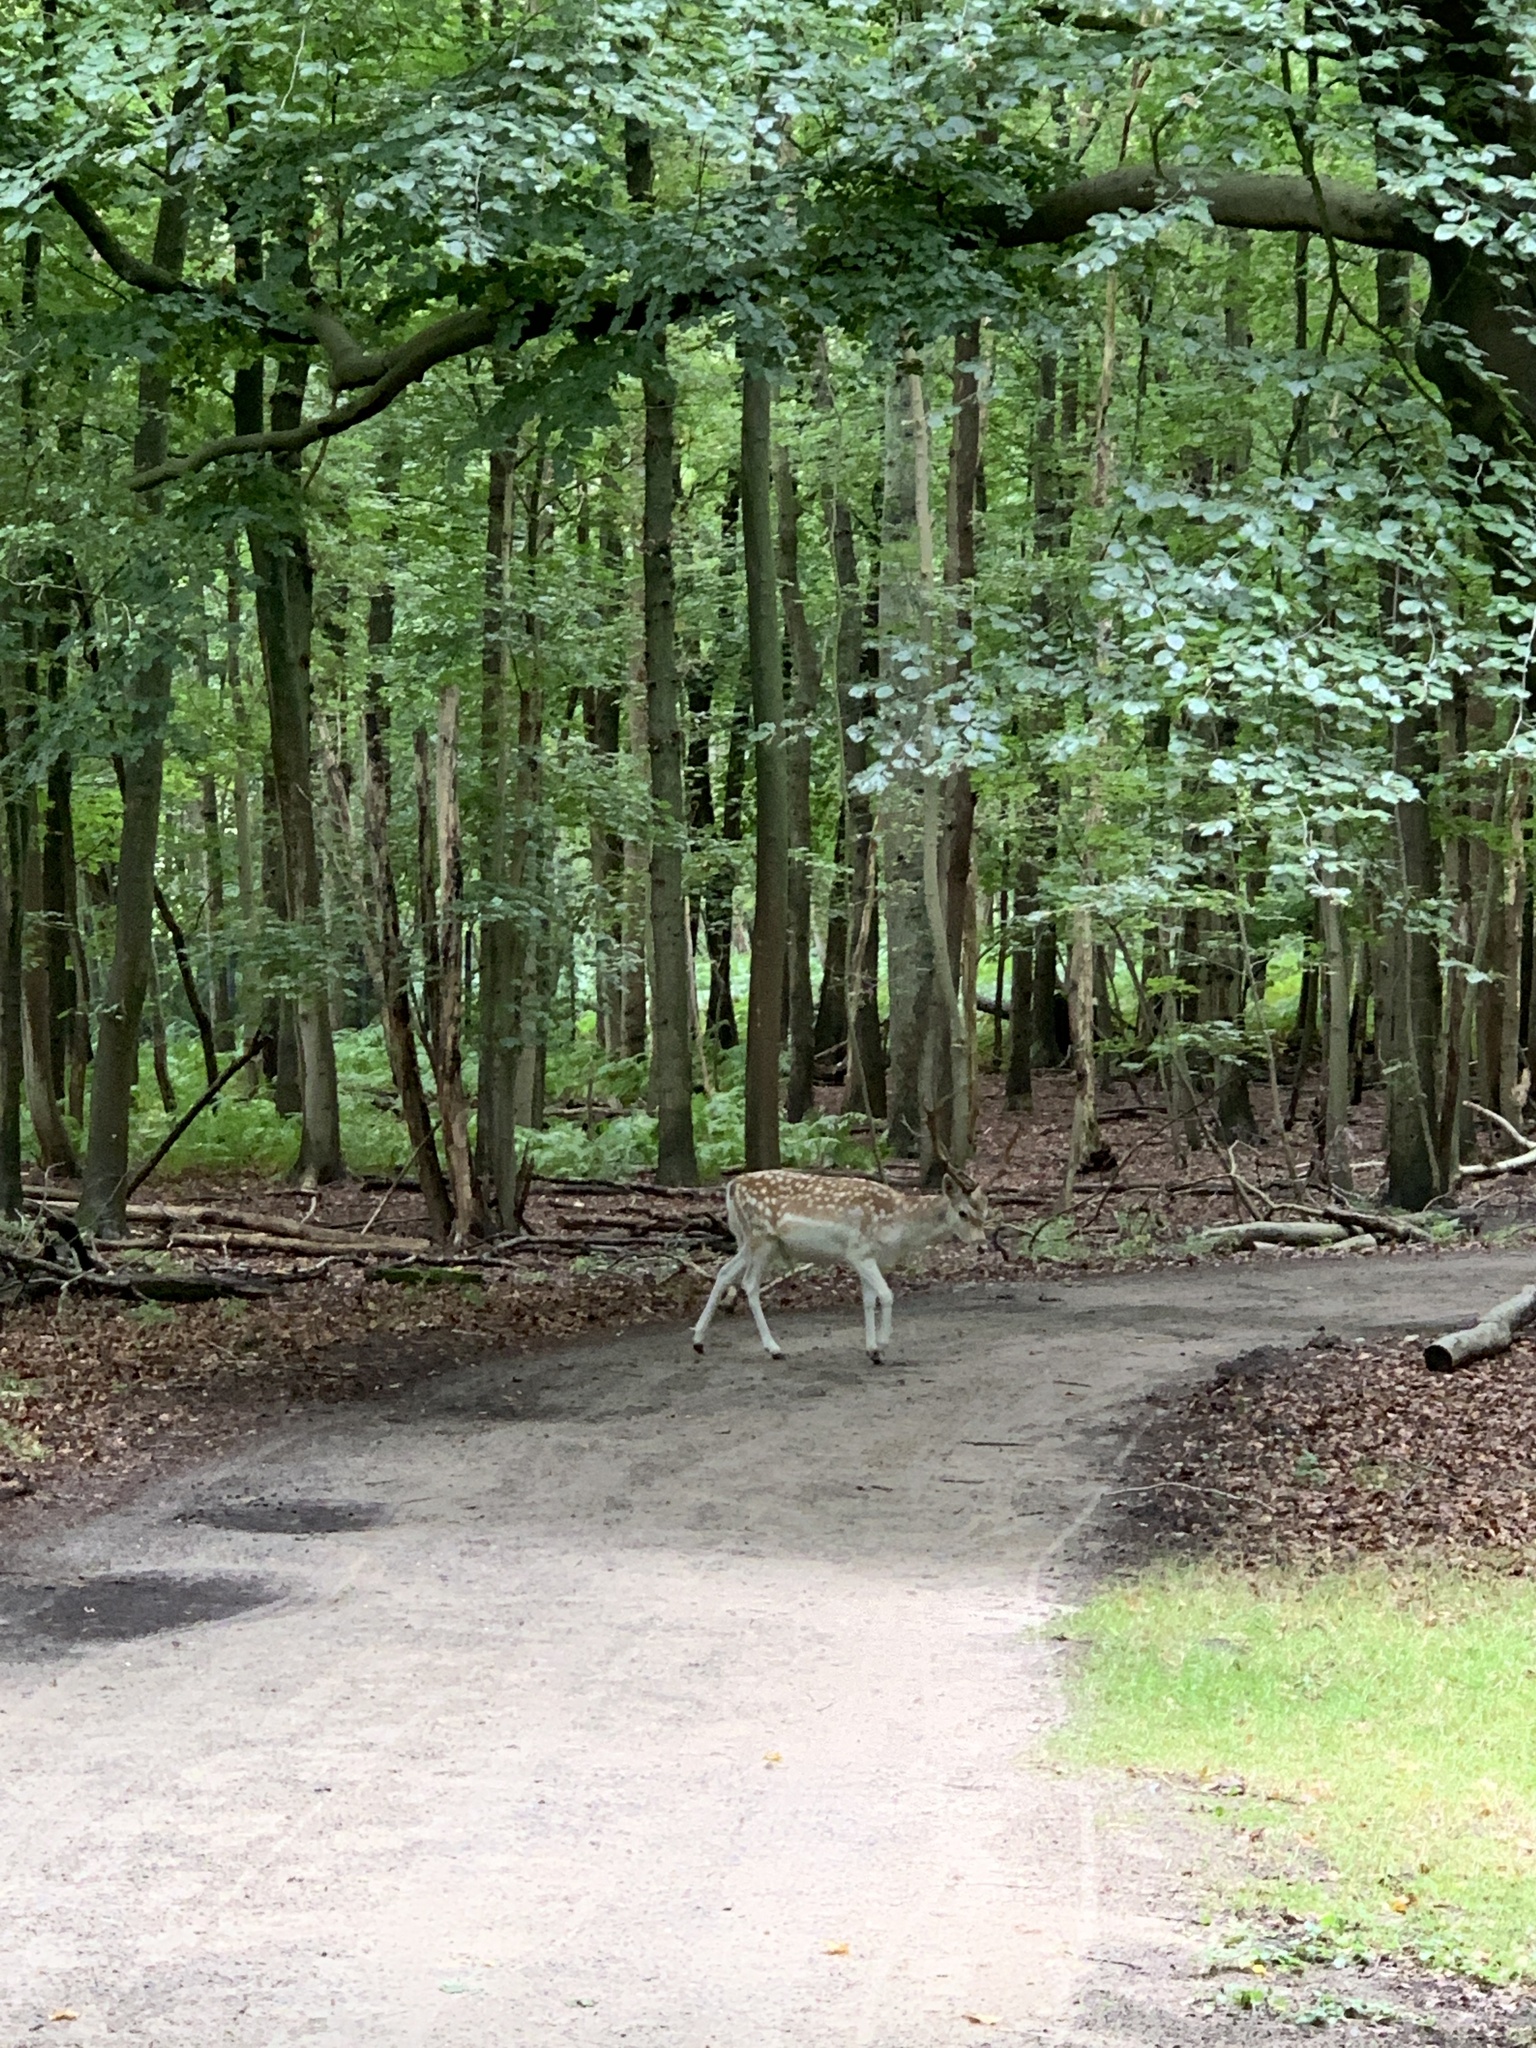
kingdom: Animalia
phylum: Chordata
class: Mammalia
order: Artiodactyla
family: Cervidae
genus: Dama
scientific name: Dama dama
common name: Fallow deer
